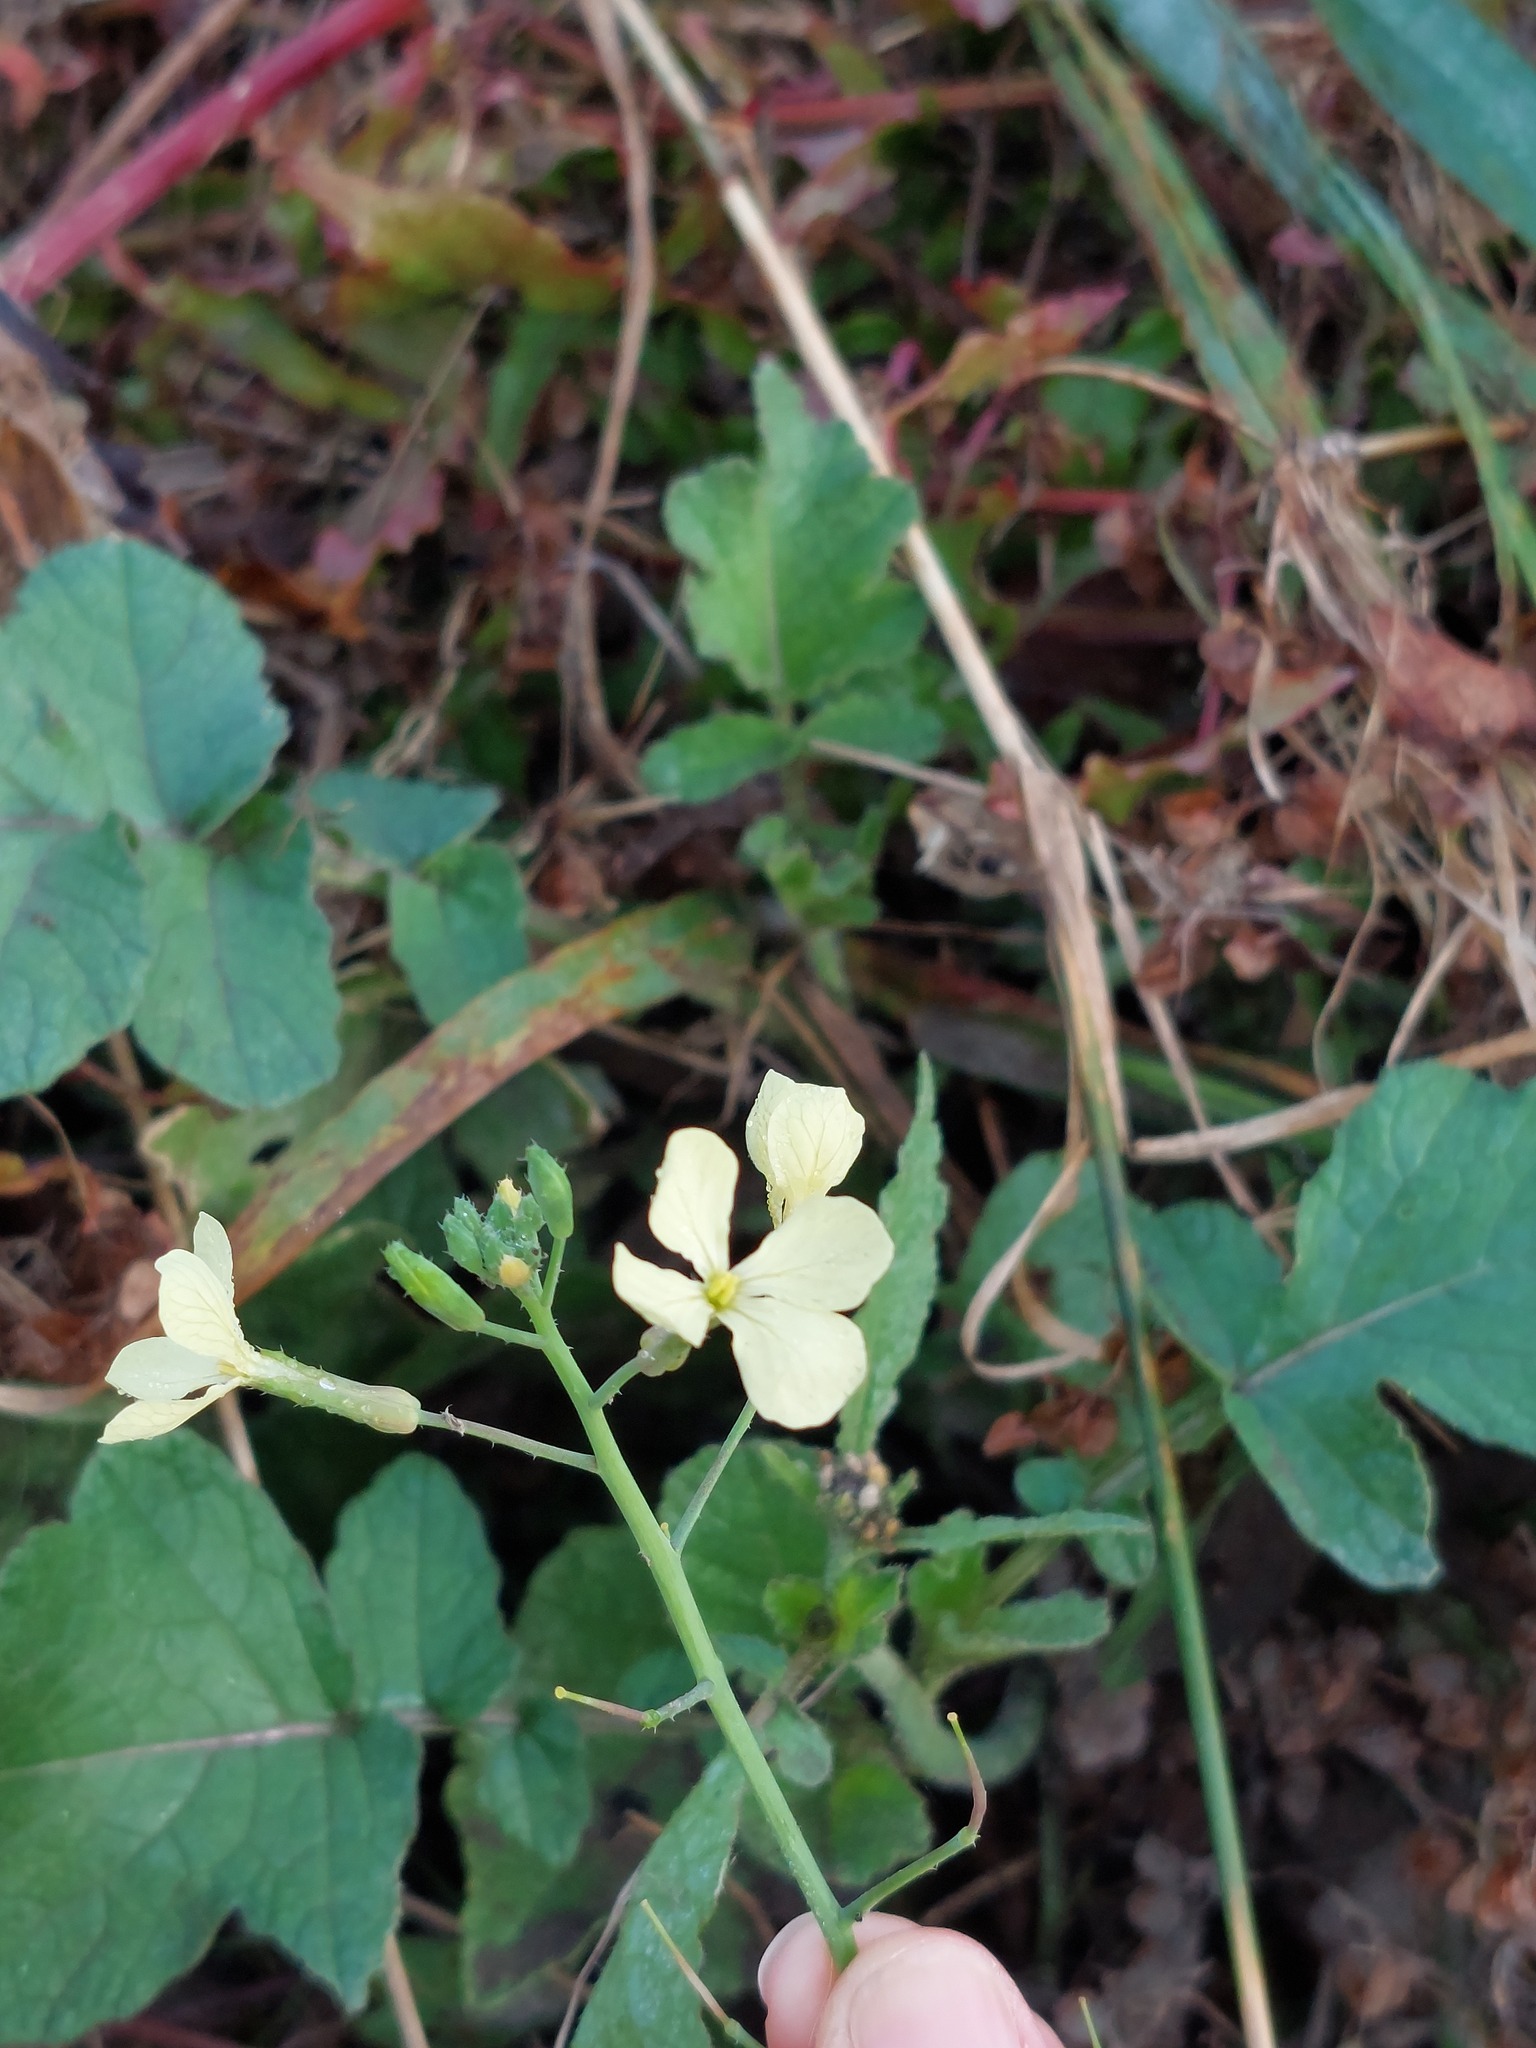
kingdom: Plantae
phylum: Tracheophyta
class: Magnoliopsida
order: Brassicales
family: Brassicaceae
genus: Raphanus
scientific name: Raphanus raphanistrum
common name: Wild radish
